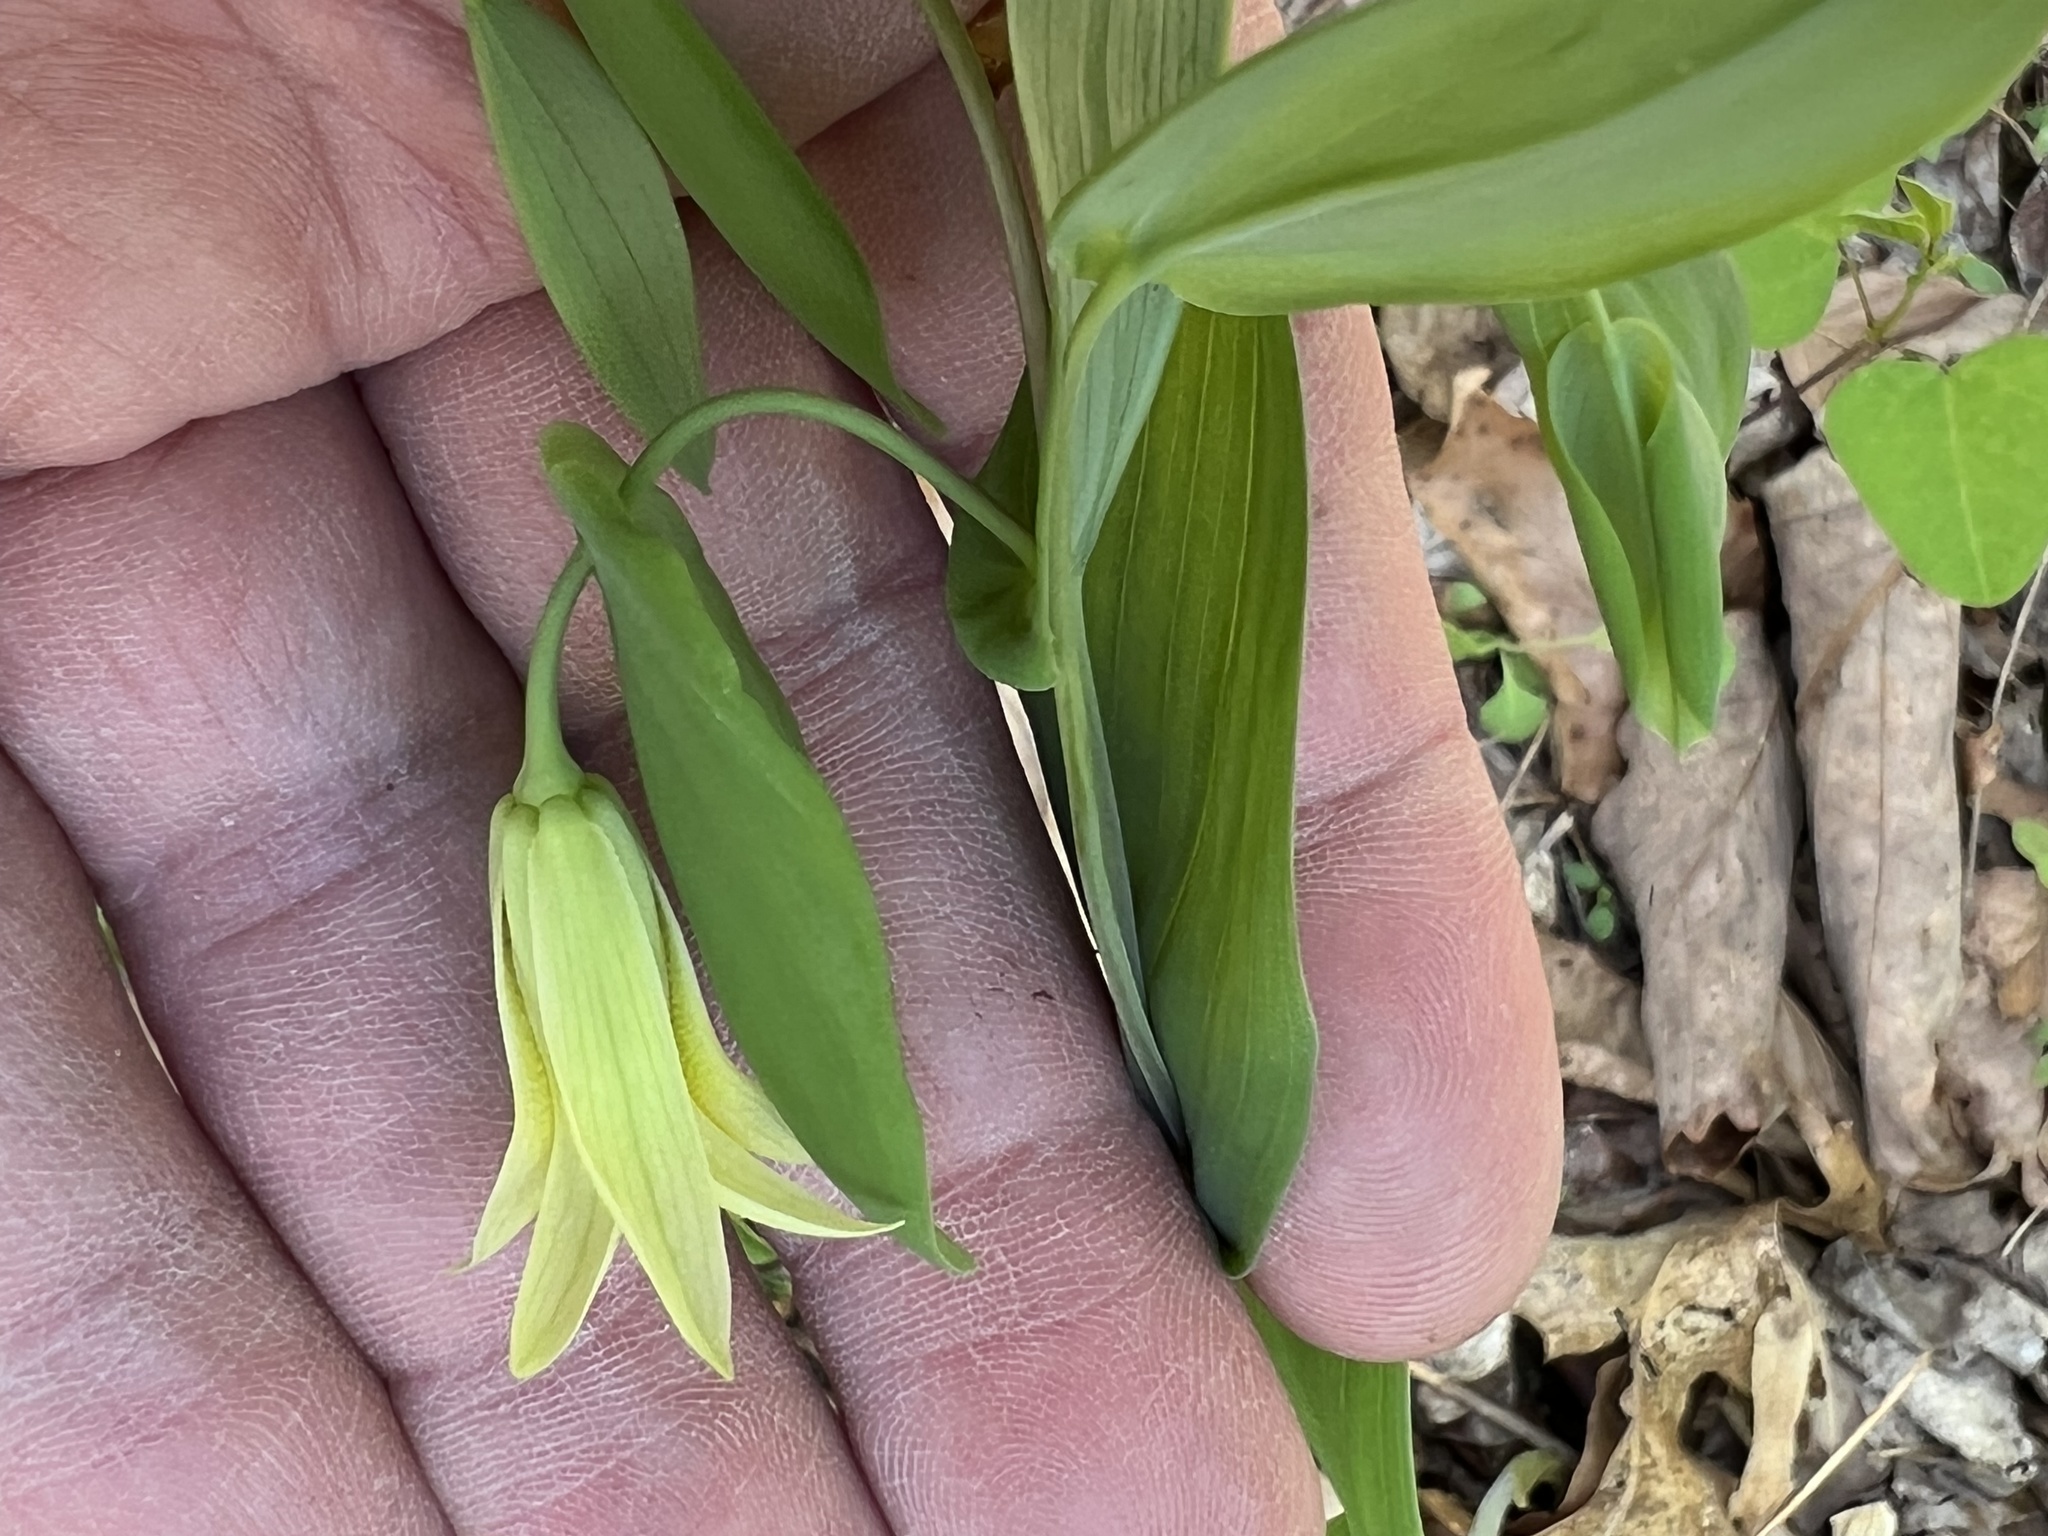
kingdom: Plantae
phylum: Tracheophyta
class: Liliopsida
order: Liliales
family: Colchicaceae
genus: Uvularia
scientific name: Uvularia perfoliata
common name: Perfoliate bellwort
